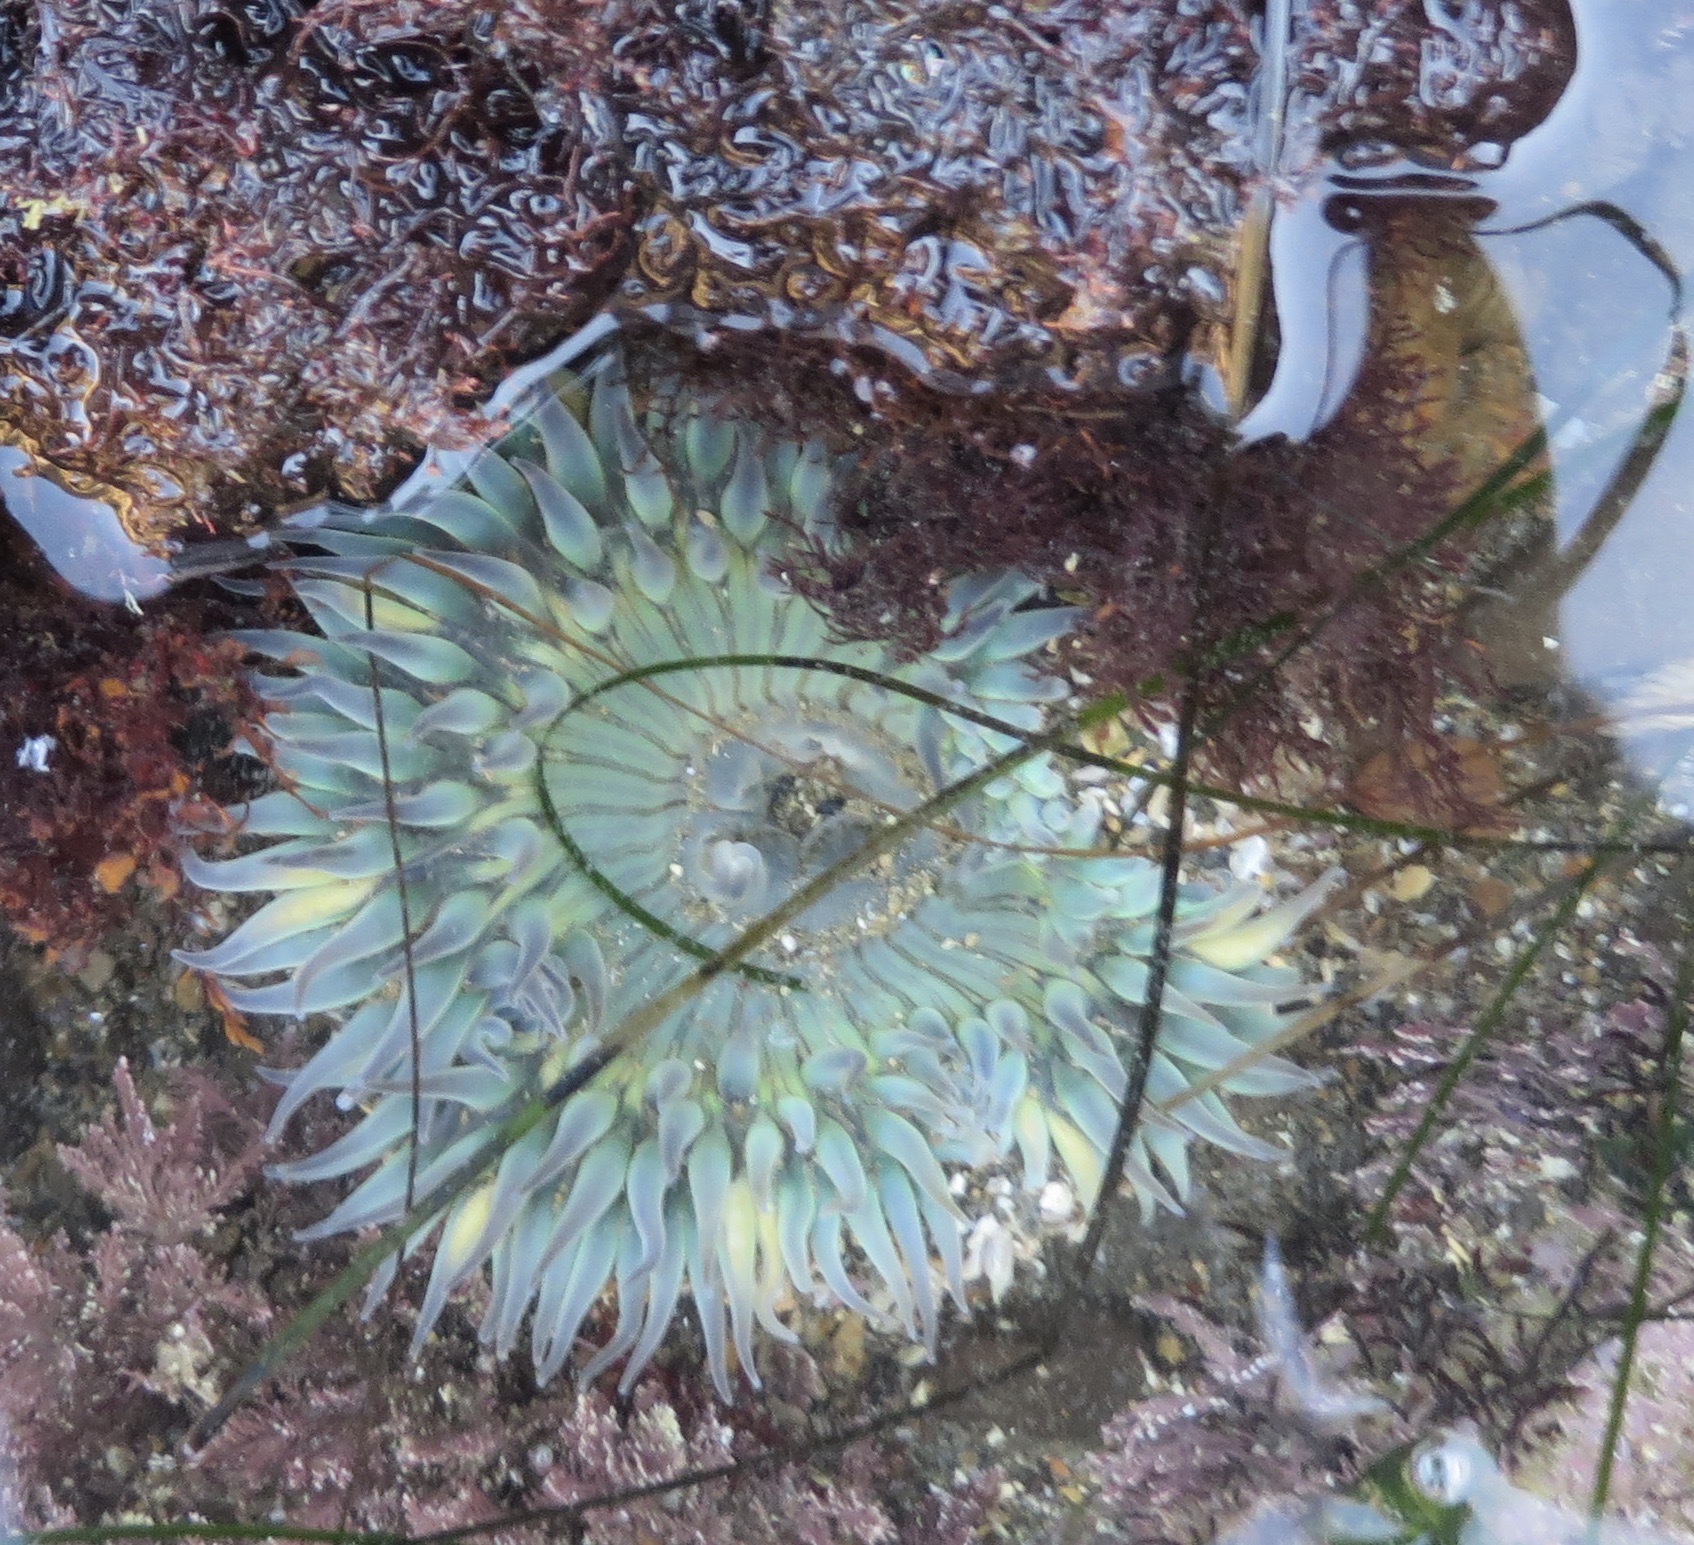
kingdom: Animalia
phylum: Cnidaria
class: Anthozoa
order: Actiniaria
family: Actiniidae
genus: Anthopleura
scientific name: Anthopleura sola
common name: Sun anemone
